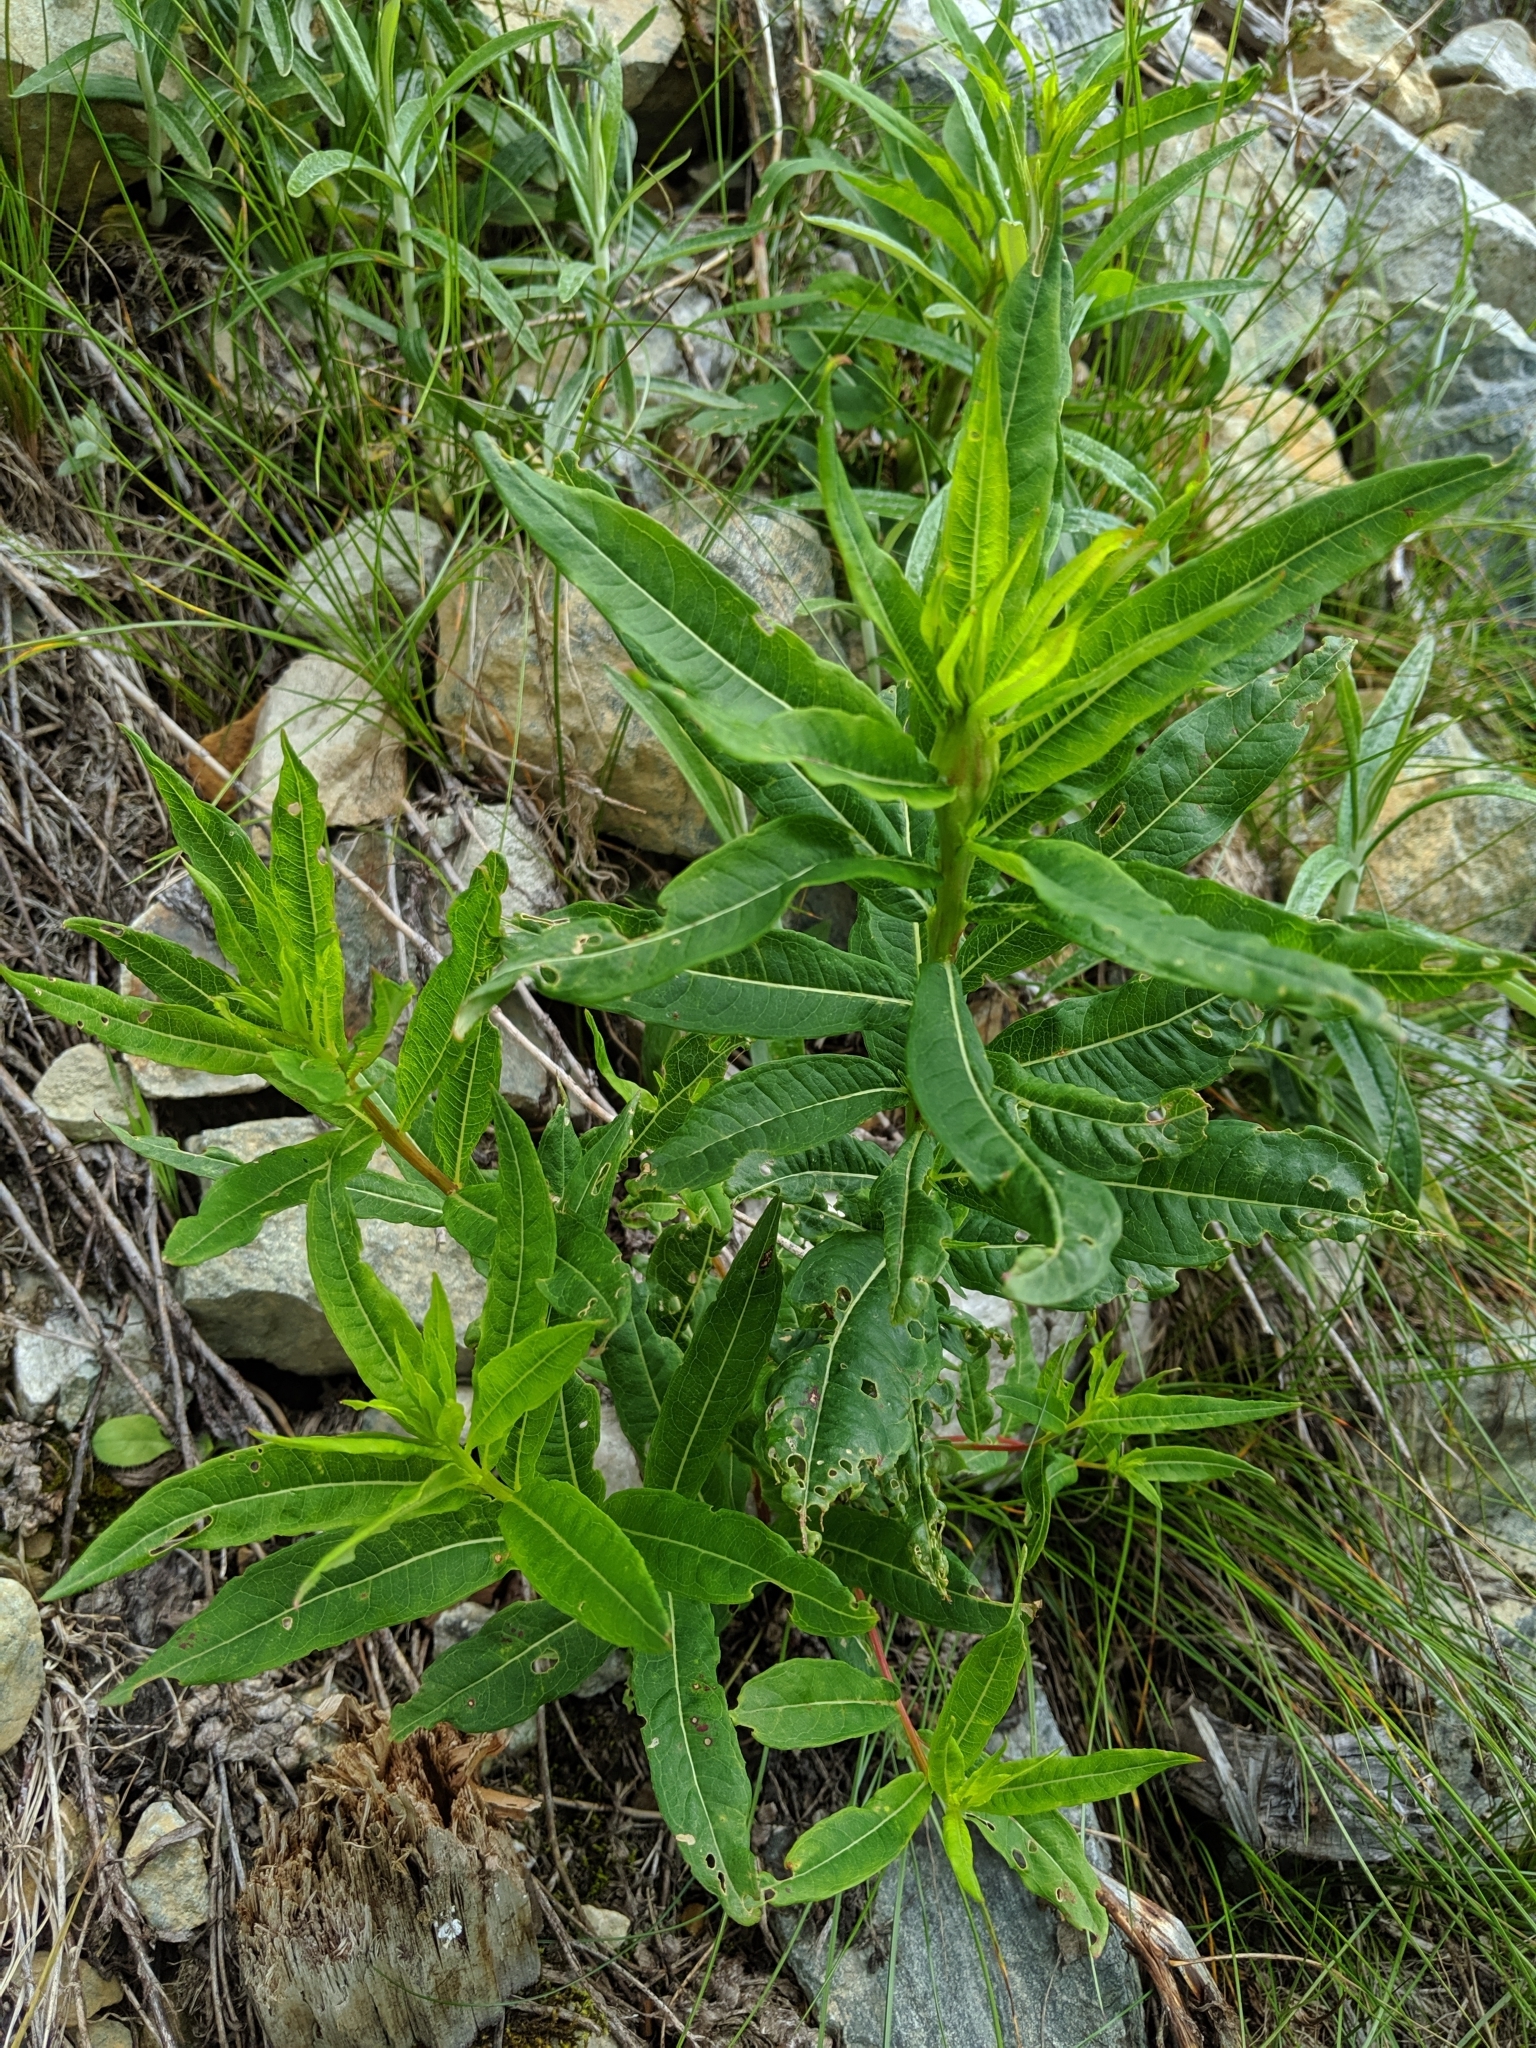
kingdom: Plantae
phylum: Tracheophyta
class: Magnoliopsida
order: Myrtales
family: Onagraceae
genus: Chamaenerion
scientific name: Chamaenerion angustifolium
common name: Fireweed
